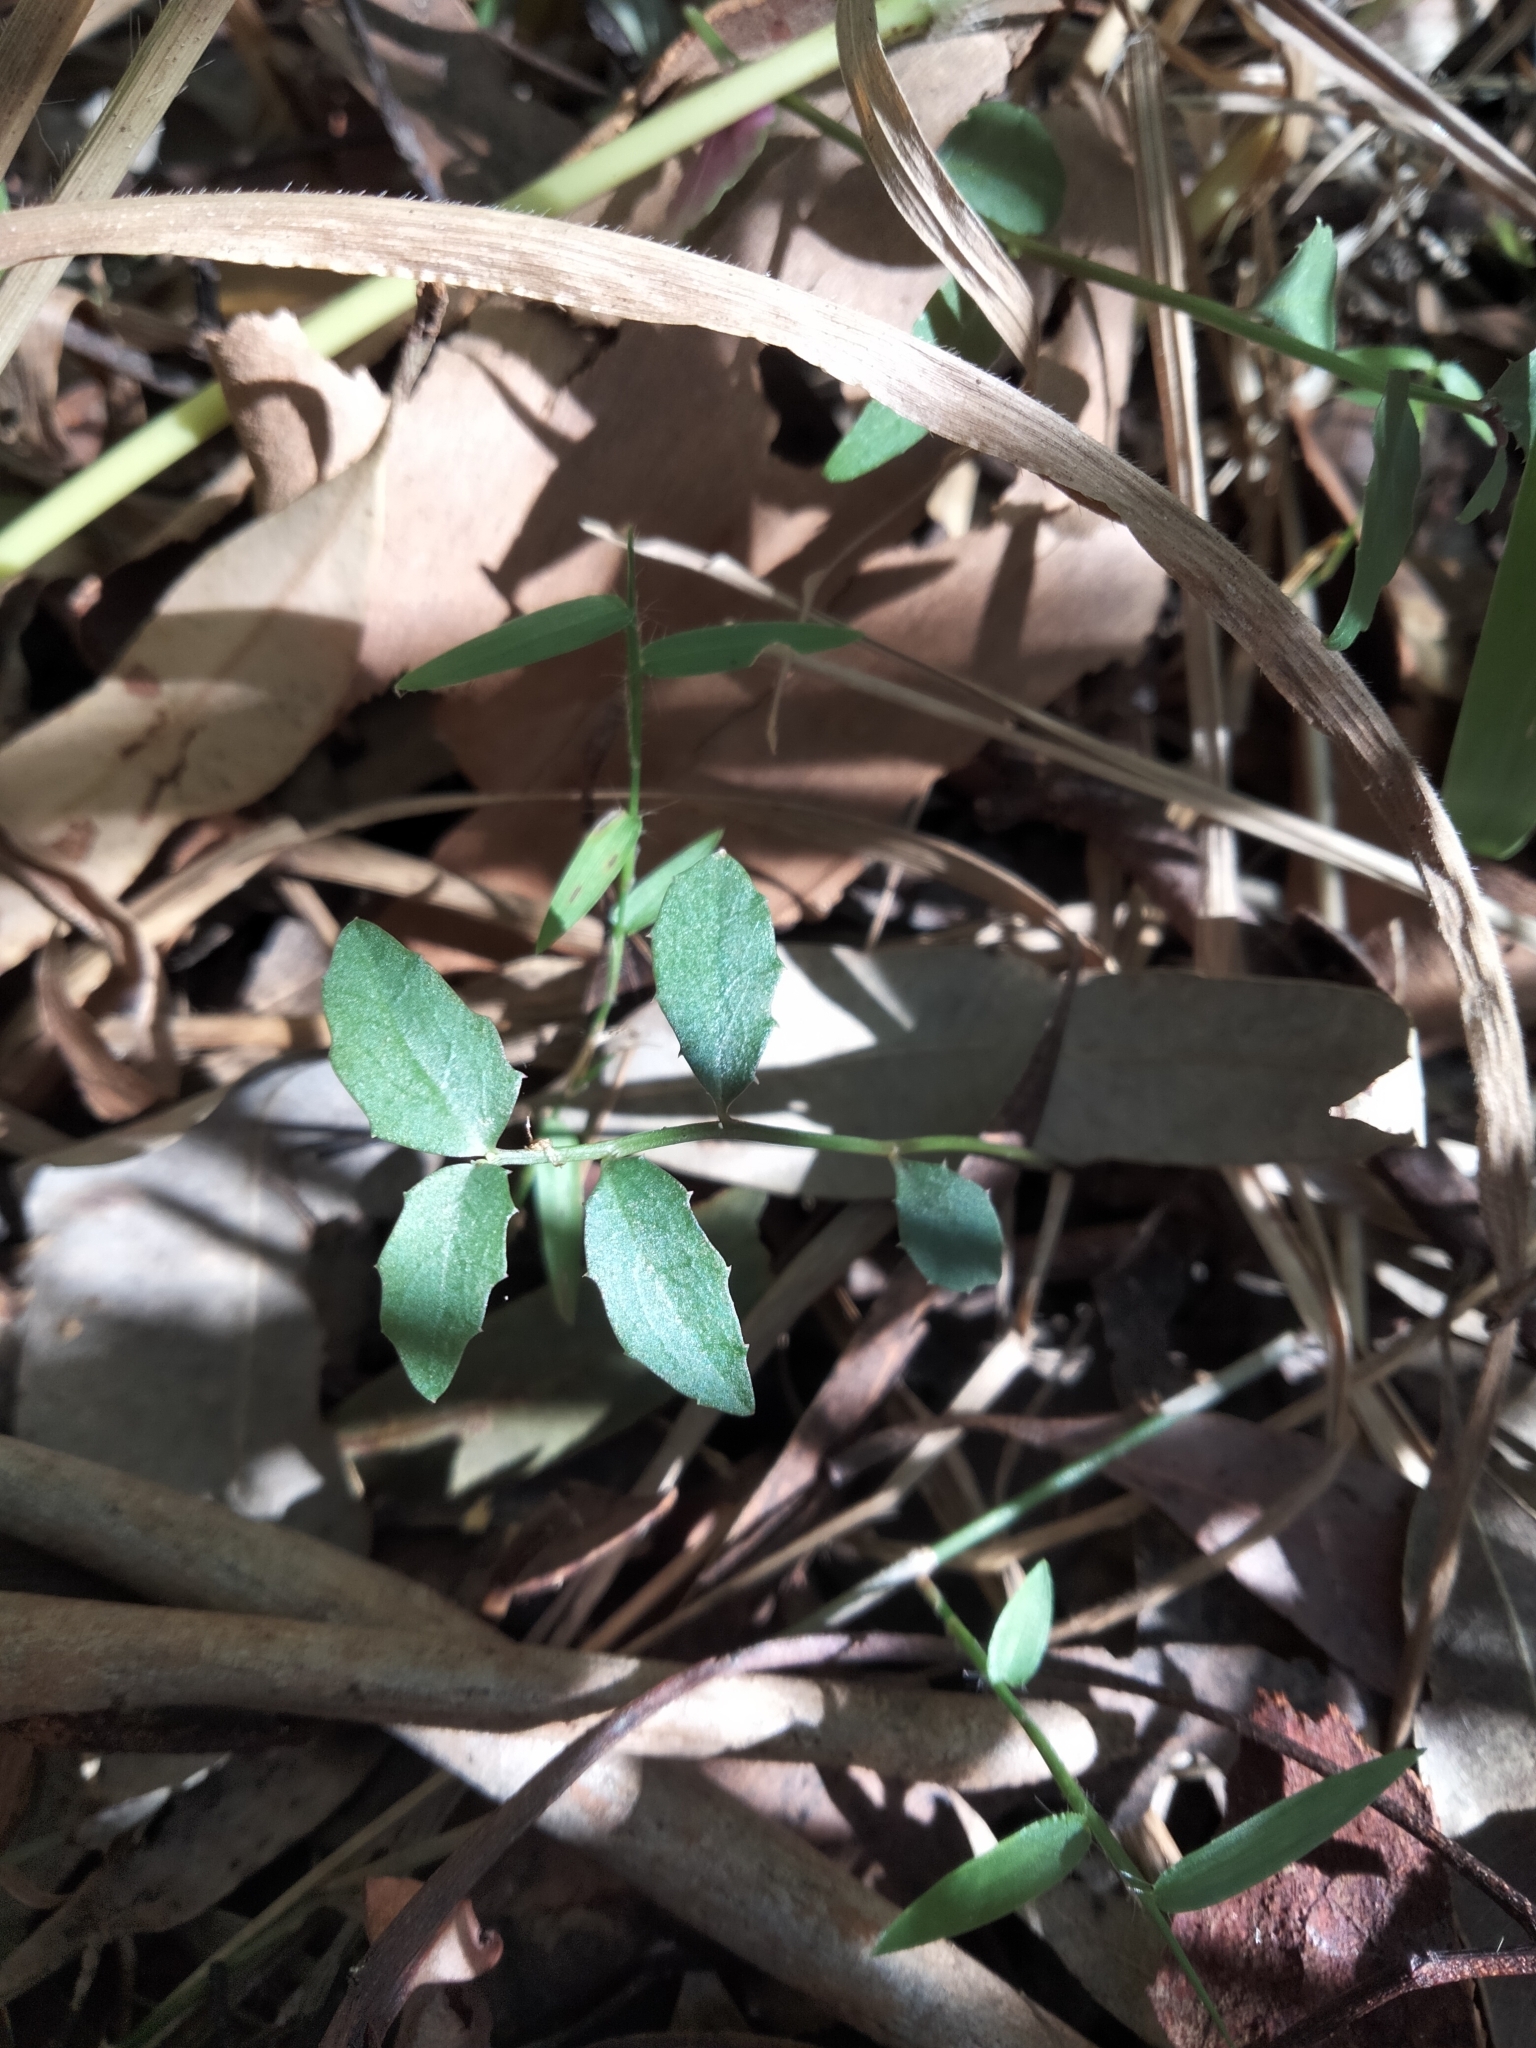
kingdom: Plantae
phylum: Tracheophyta
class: Magnoliopsida
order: Asterales
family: Campanulaceae
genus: Lobelia
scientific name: Lobelia purpurascens
